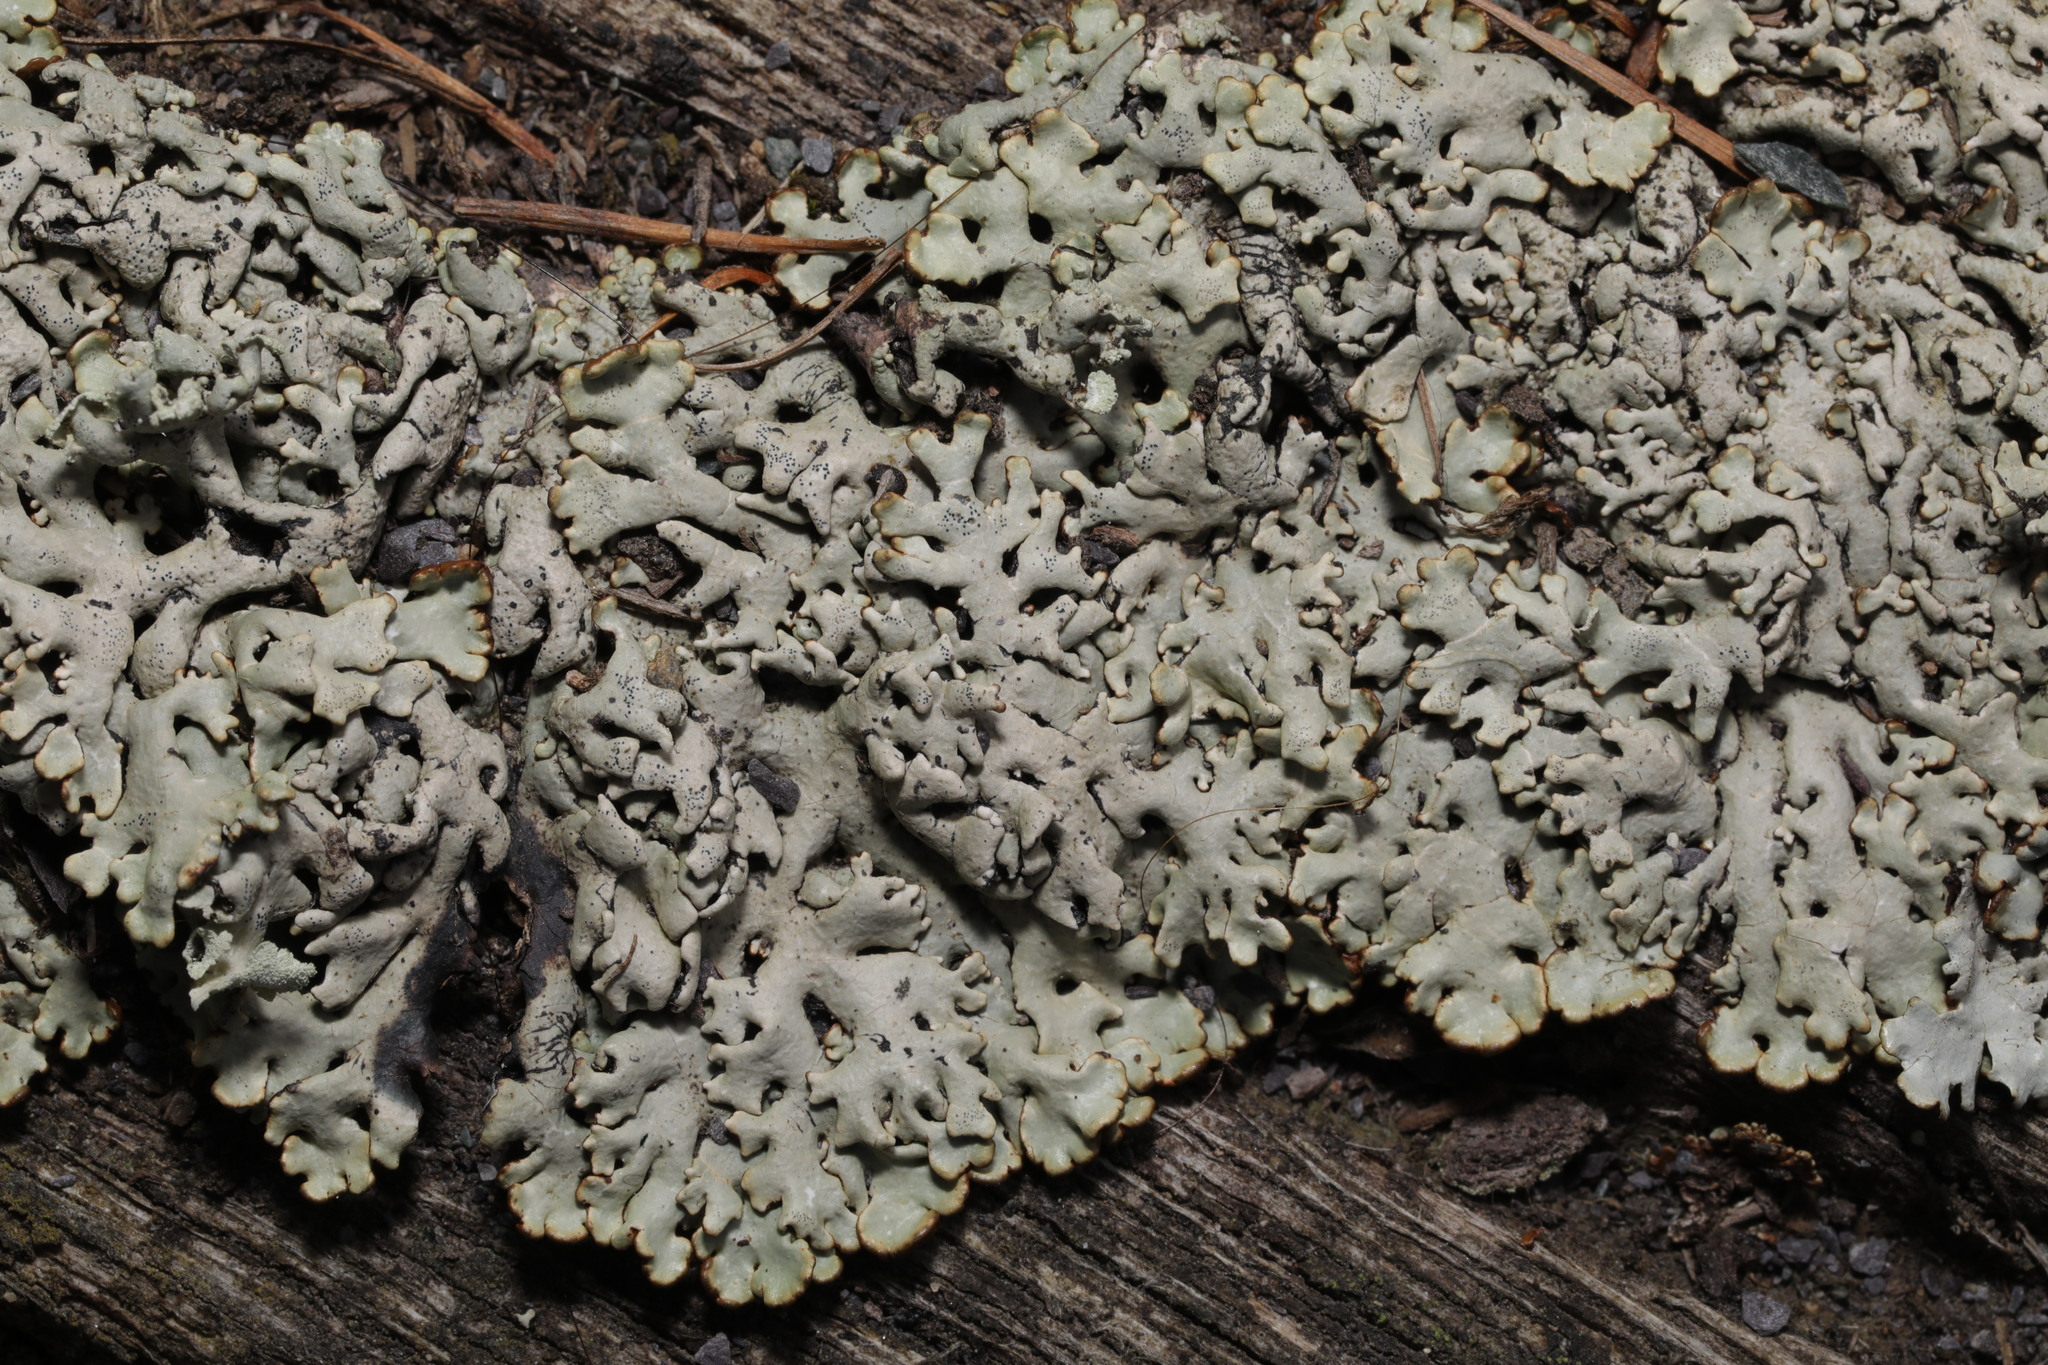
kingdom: Fungi
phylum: Ascomycota
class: Lecanoromycetes
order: Lecanorales
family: Parmeliaceae
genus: Hypogymnia
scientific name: Hypogymnia physodes
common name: Dark crottle
